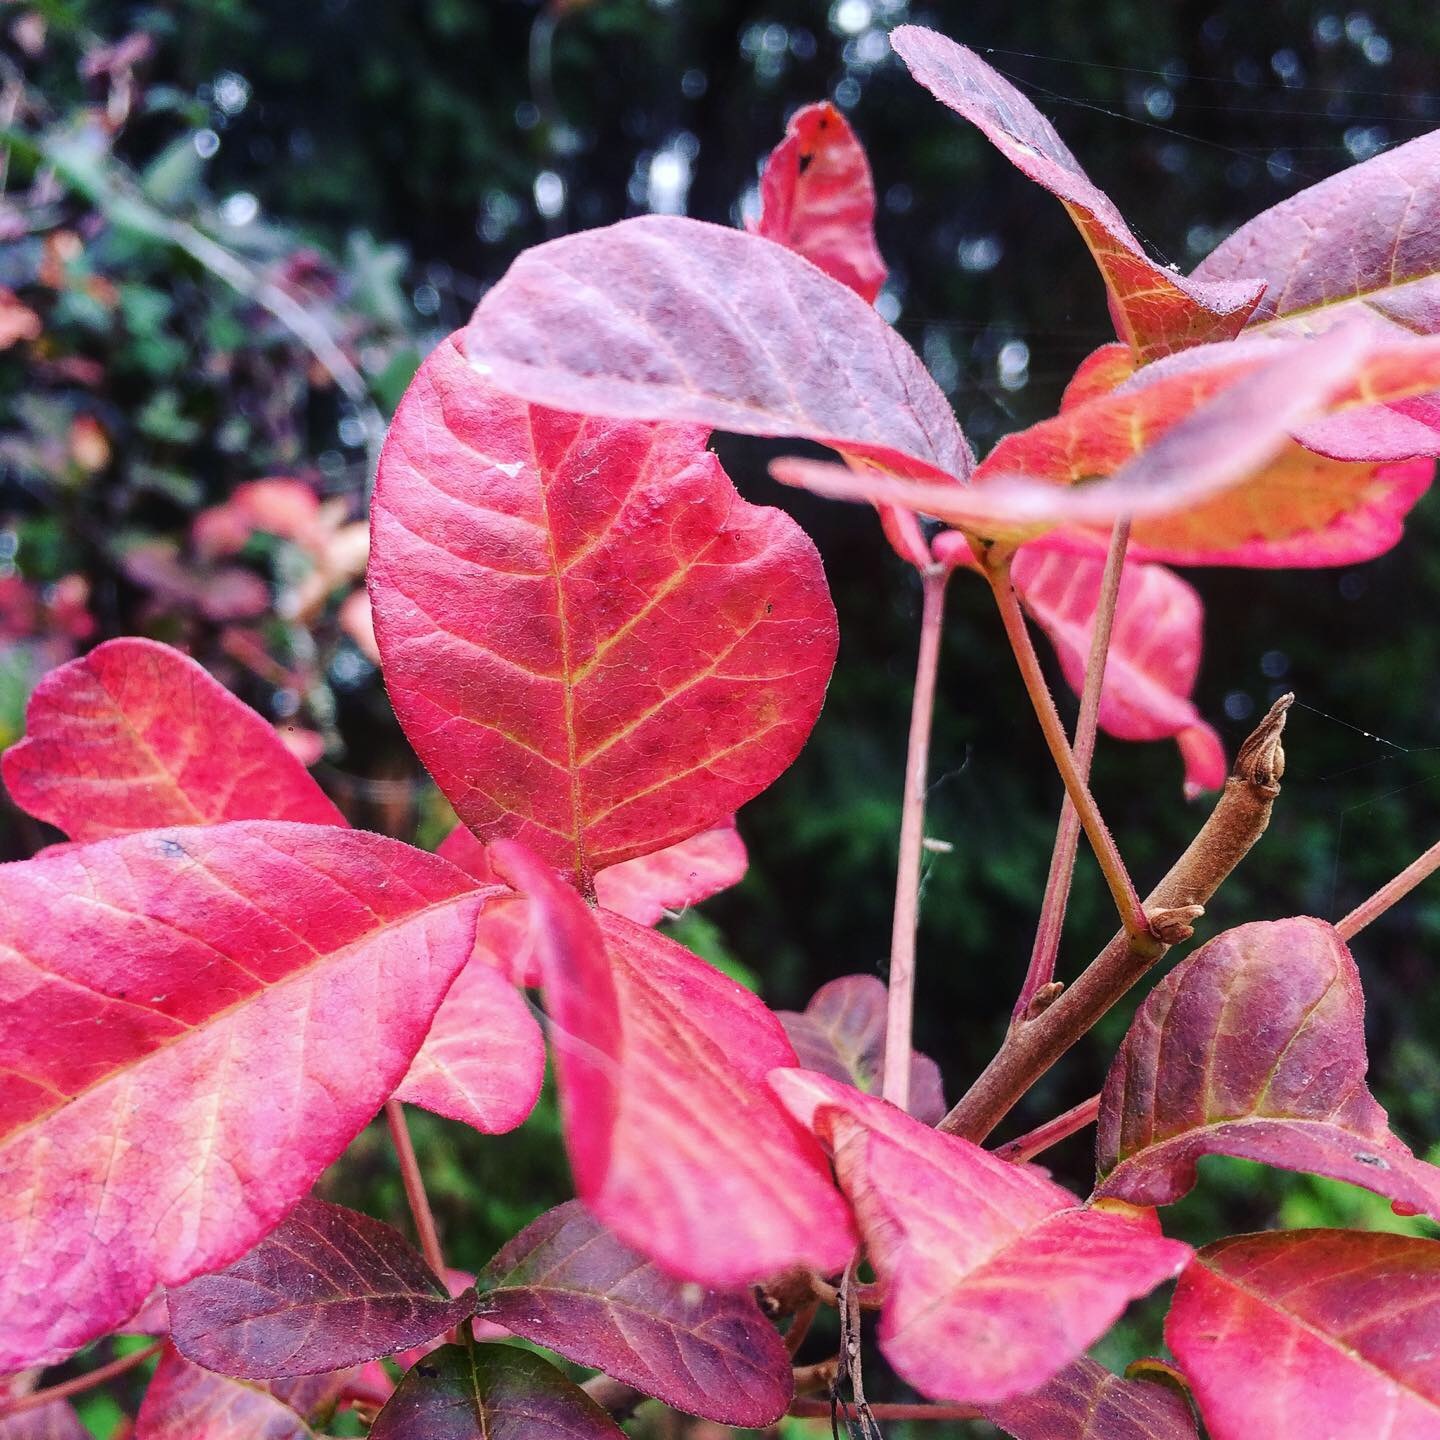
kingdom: Plantae
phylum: Tracheophyta
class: Magnoliopsida
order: Sapindales
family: Anacardiaceae
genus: Toxicodendron
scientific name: Toxicodendron diversilobum
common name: Pacific poison-oak
